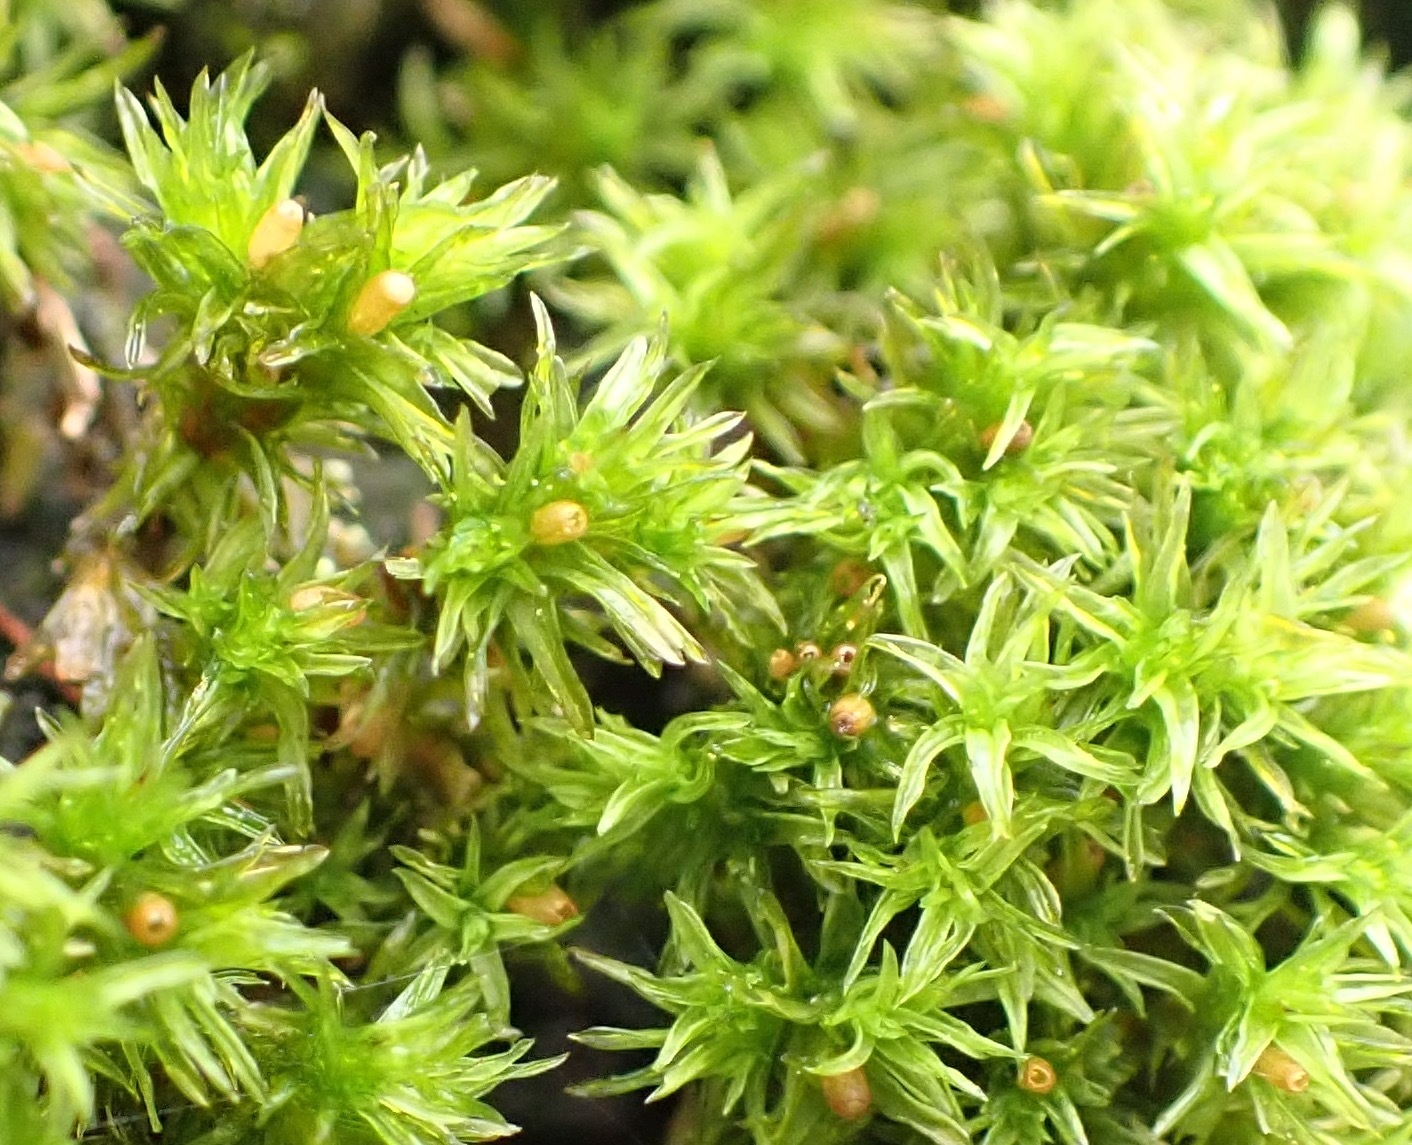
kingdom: Plantae
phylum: Bryophyta
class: Bryopsida
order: Orthotrichales
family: Orthotrichaceae
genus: Lewinskya
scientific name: Lewinskya affinis
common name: Wood bristle-moss
